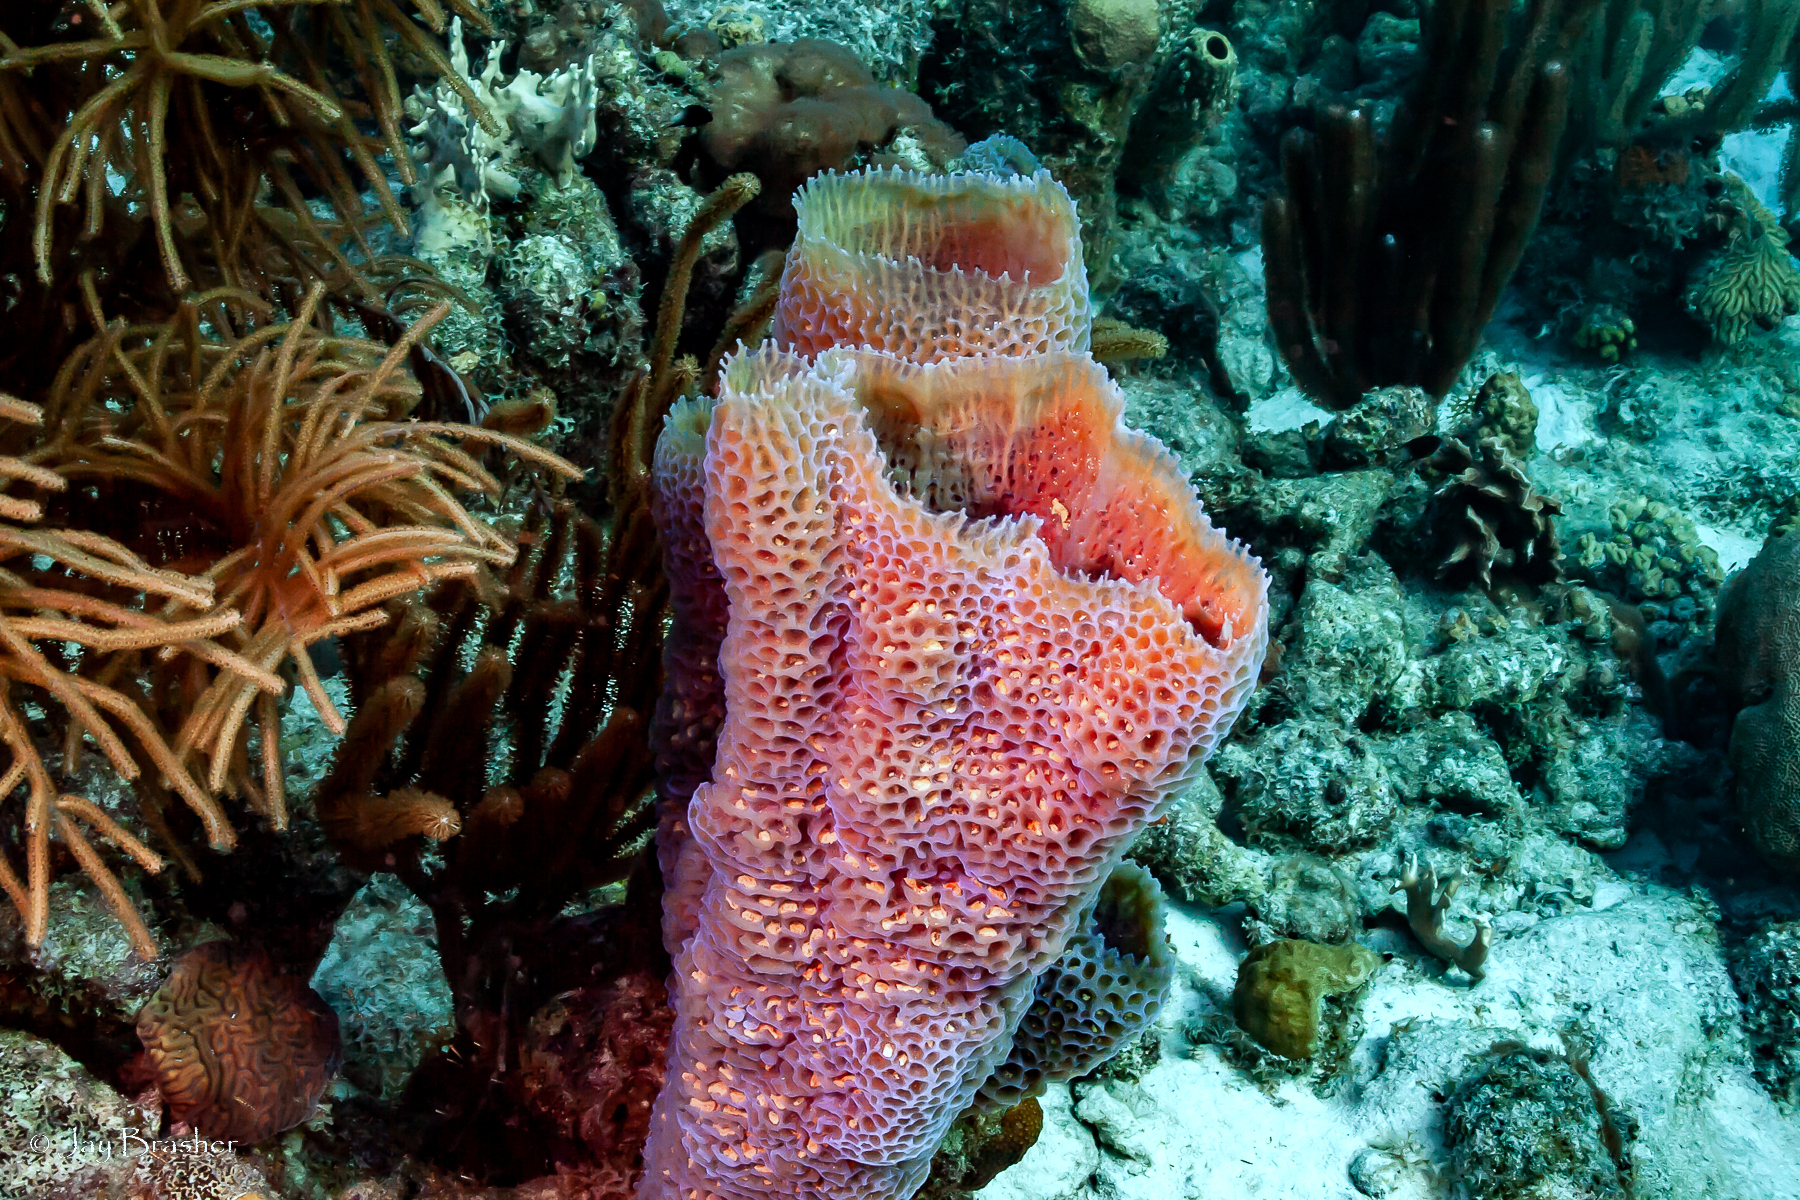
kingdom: Animalia
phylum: Porifera
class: Demospongiae
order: Haplosclerida
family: Callyspongiidae
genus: Callyspongia
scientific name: Callyspongia plicifera
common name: Azure vase sponge
